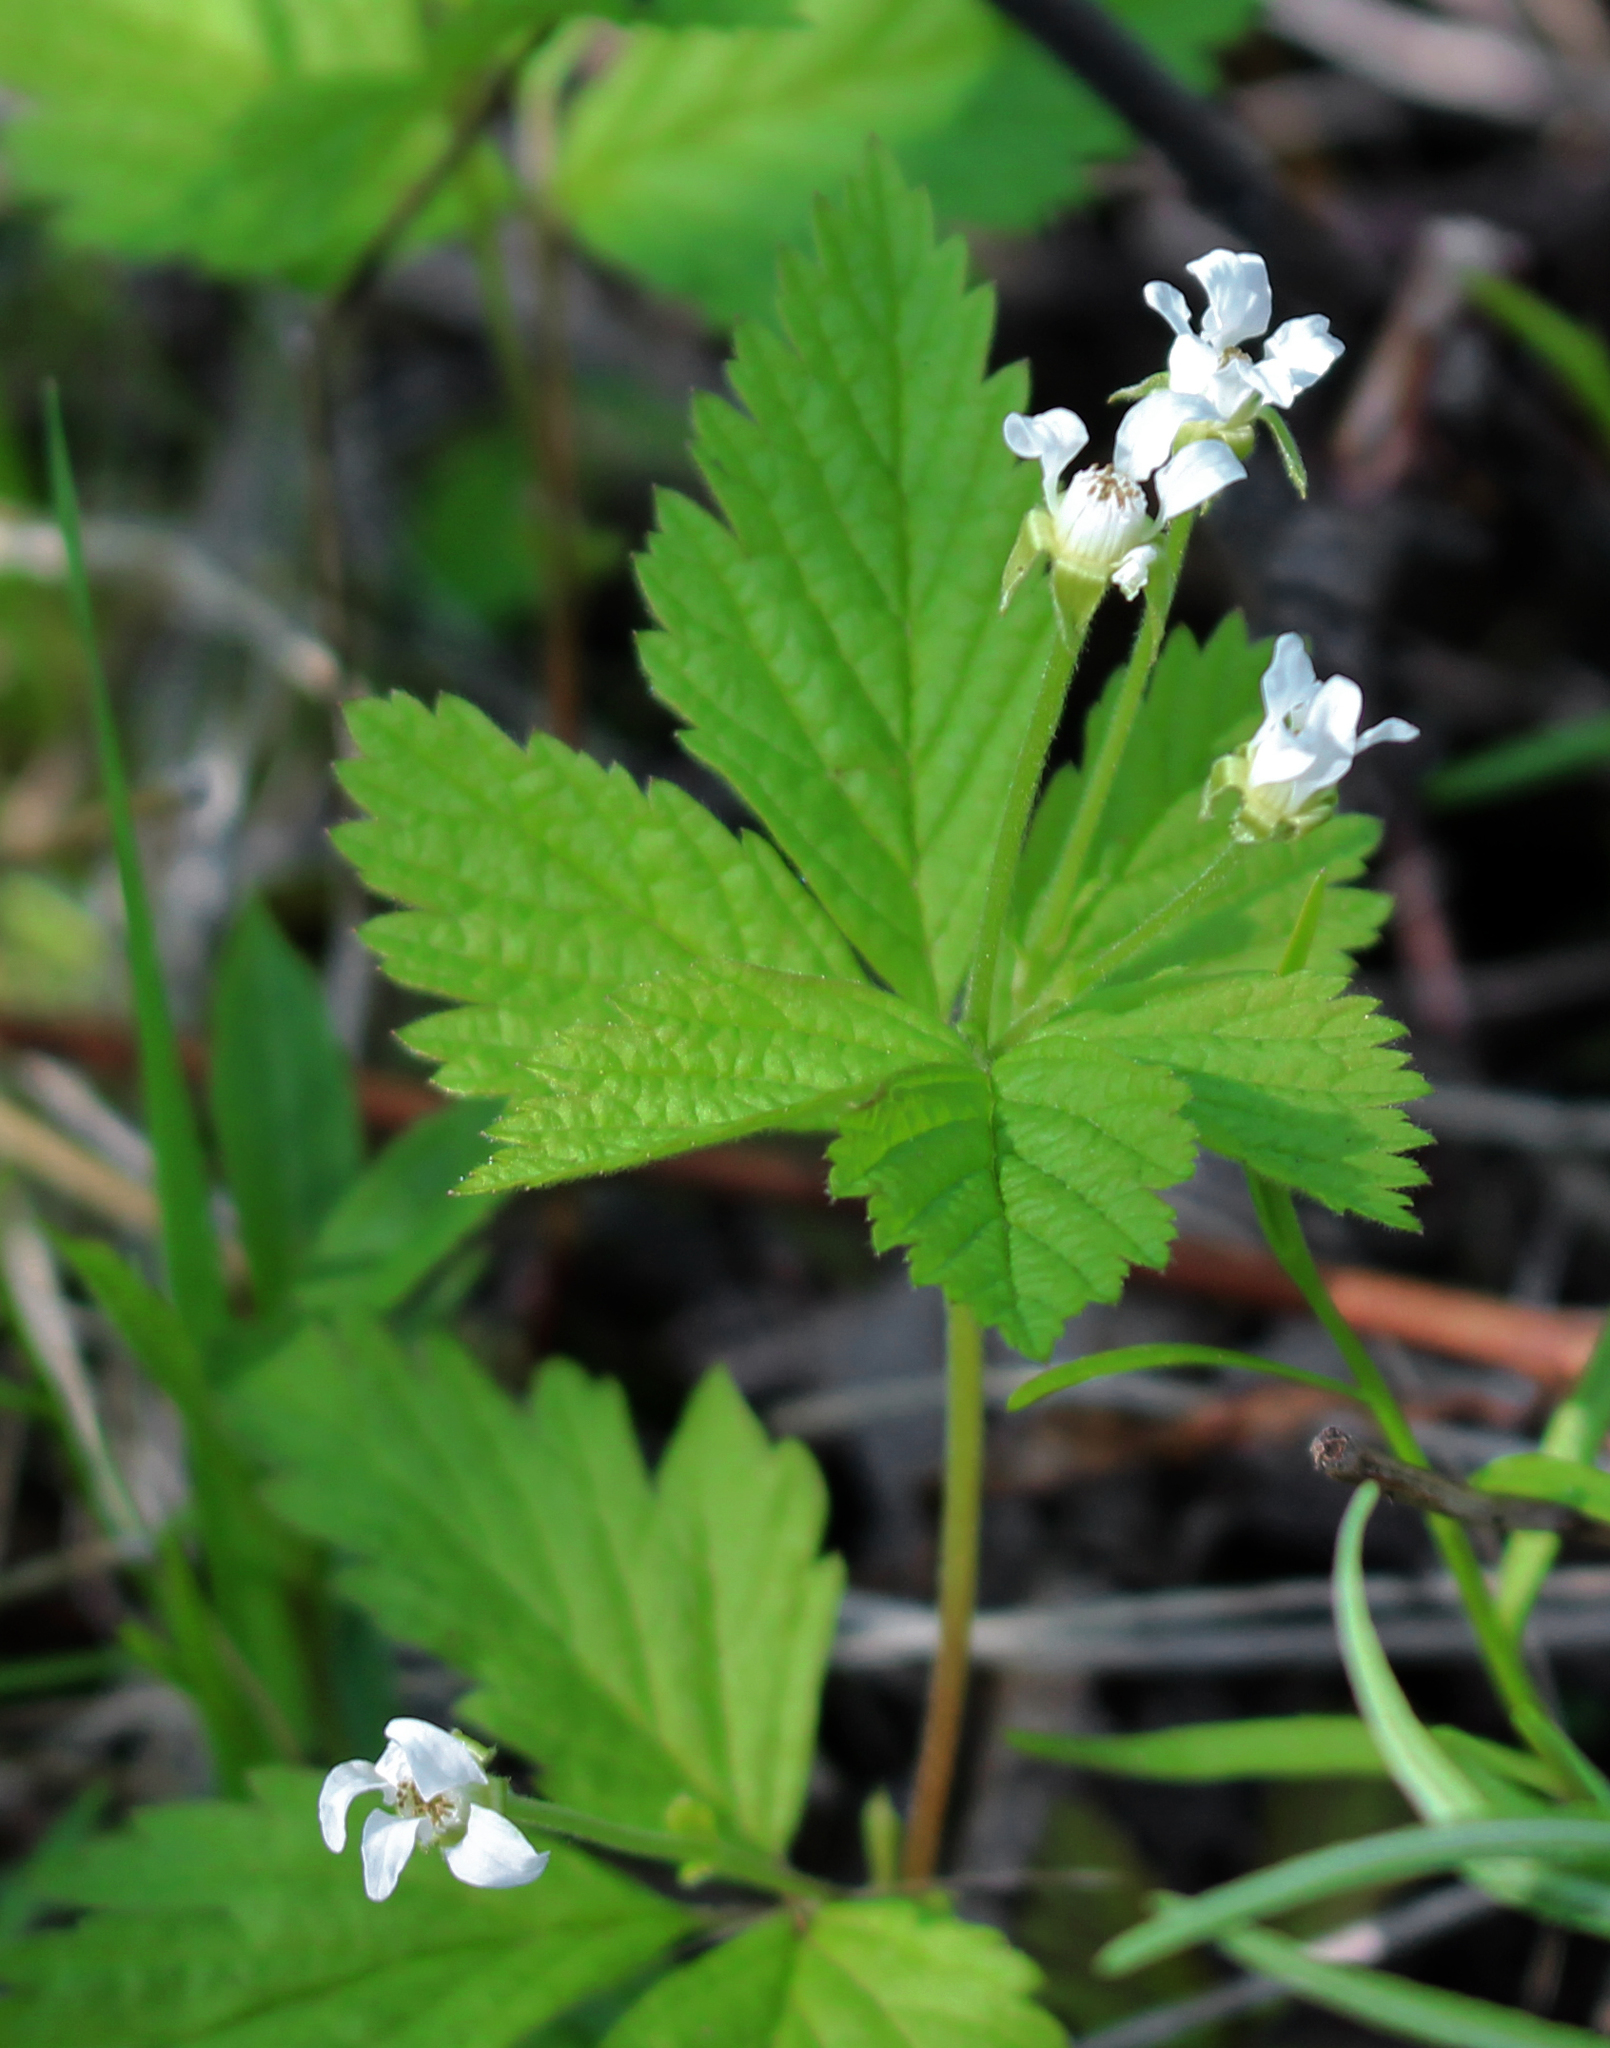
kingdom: Plantae
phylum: Tracheophyta
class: Magnoliopsida
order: Rosales
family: Rosaceae
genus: Rubus
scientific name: Rubus pubescens
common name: Dwarf raspberry
